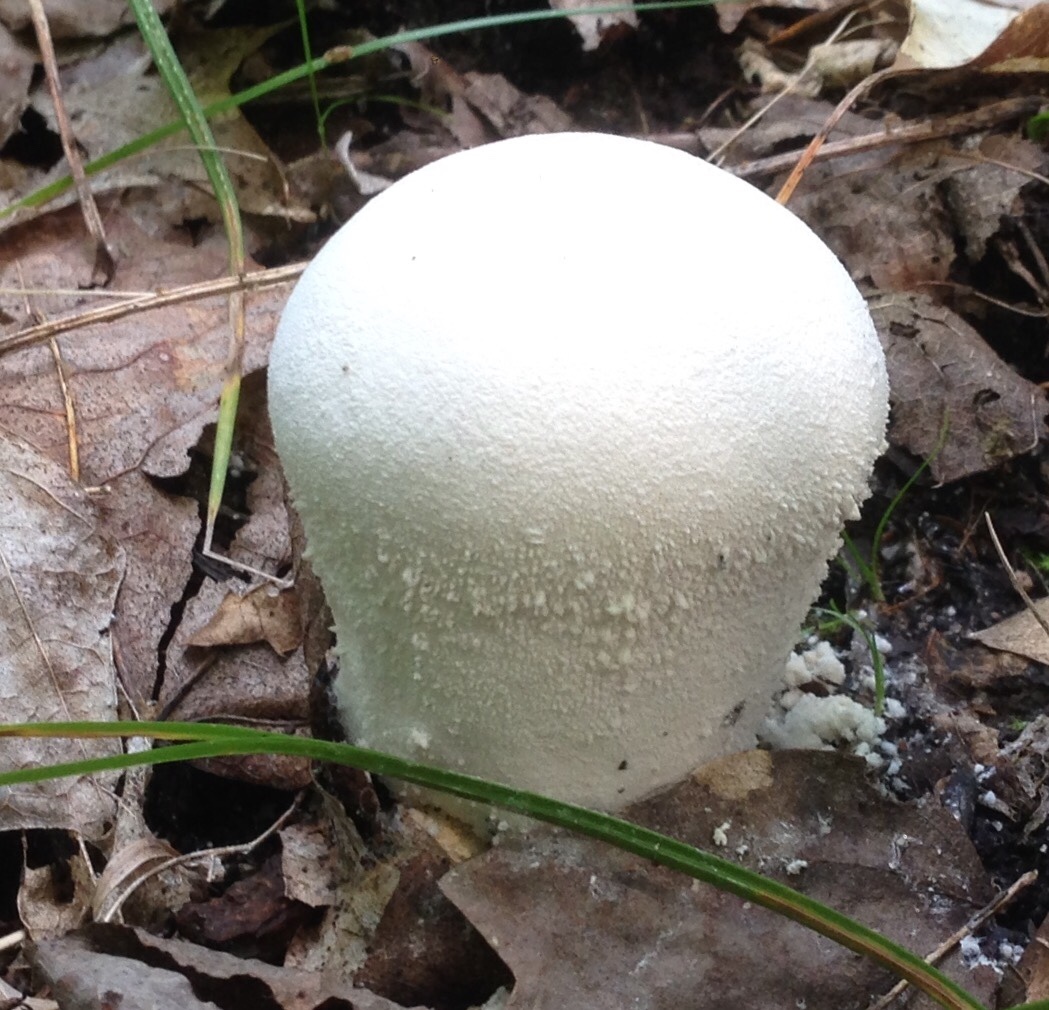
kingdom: Fungi
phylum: Basidiomycota
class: Agaricomycetes
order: Agaricales
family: Lycoperdaceae
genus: Lycoperdon
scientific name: Lycoperdon floccosum
